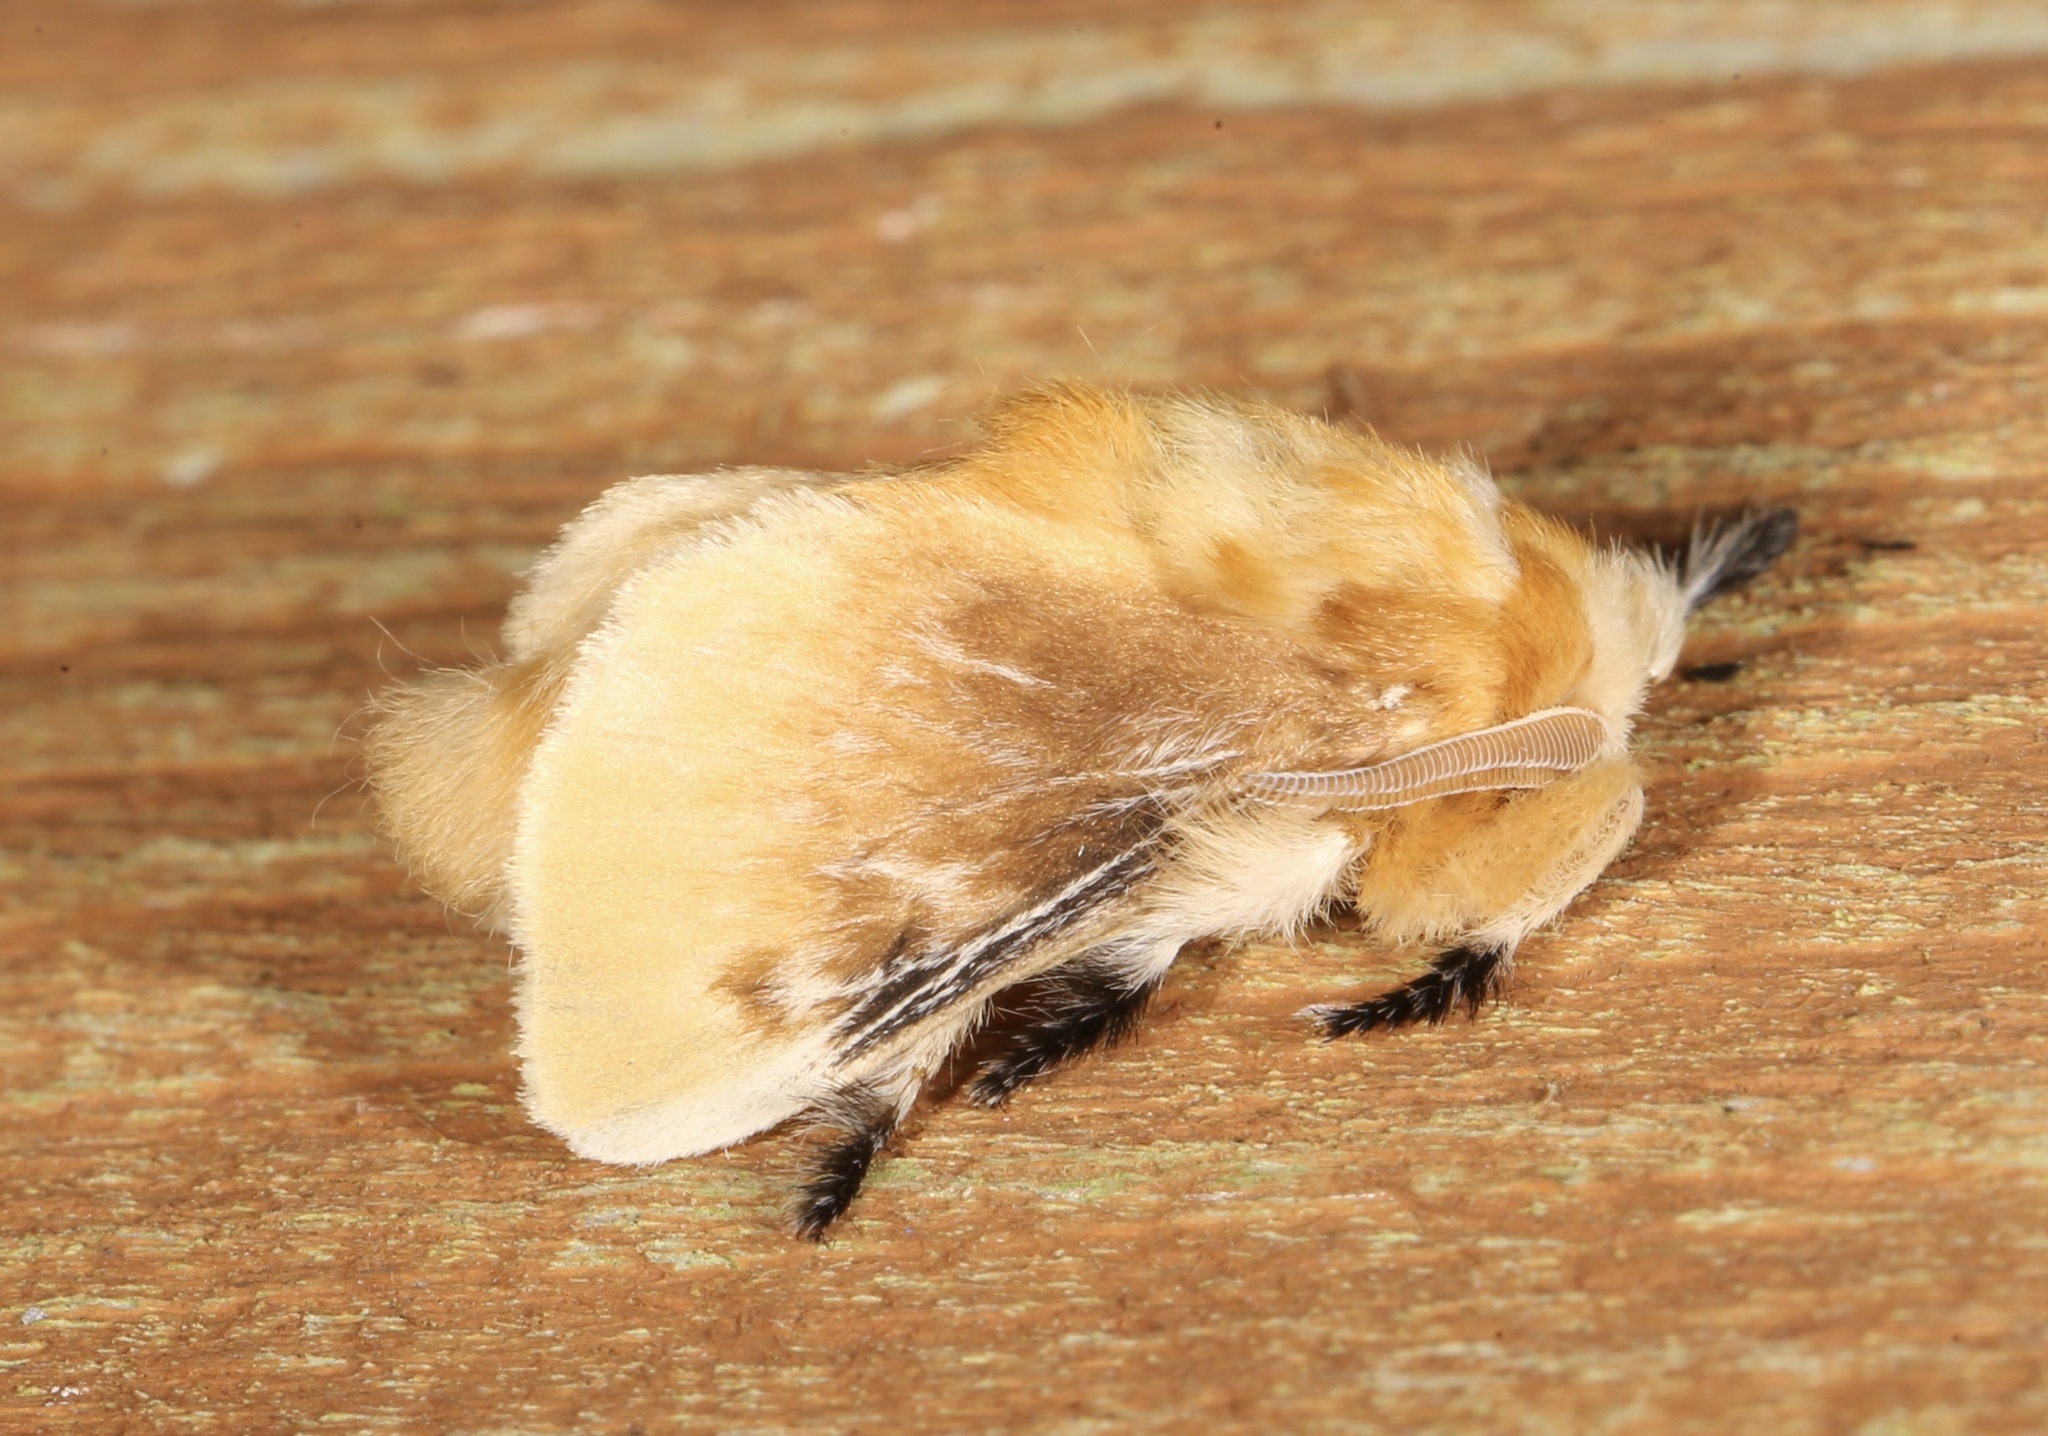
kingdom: Animalia
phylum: Arthropoda
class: Insecta
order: Lepidoptera
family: Megalopygidae
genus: Megalopyge
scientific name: Megalopyge opercularis
